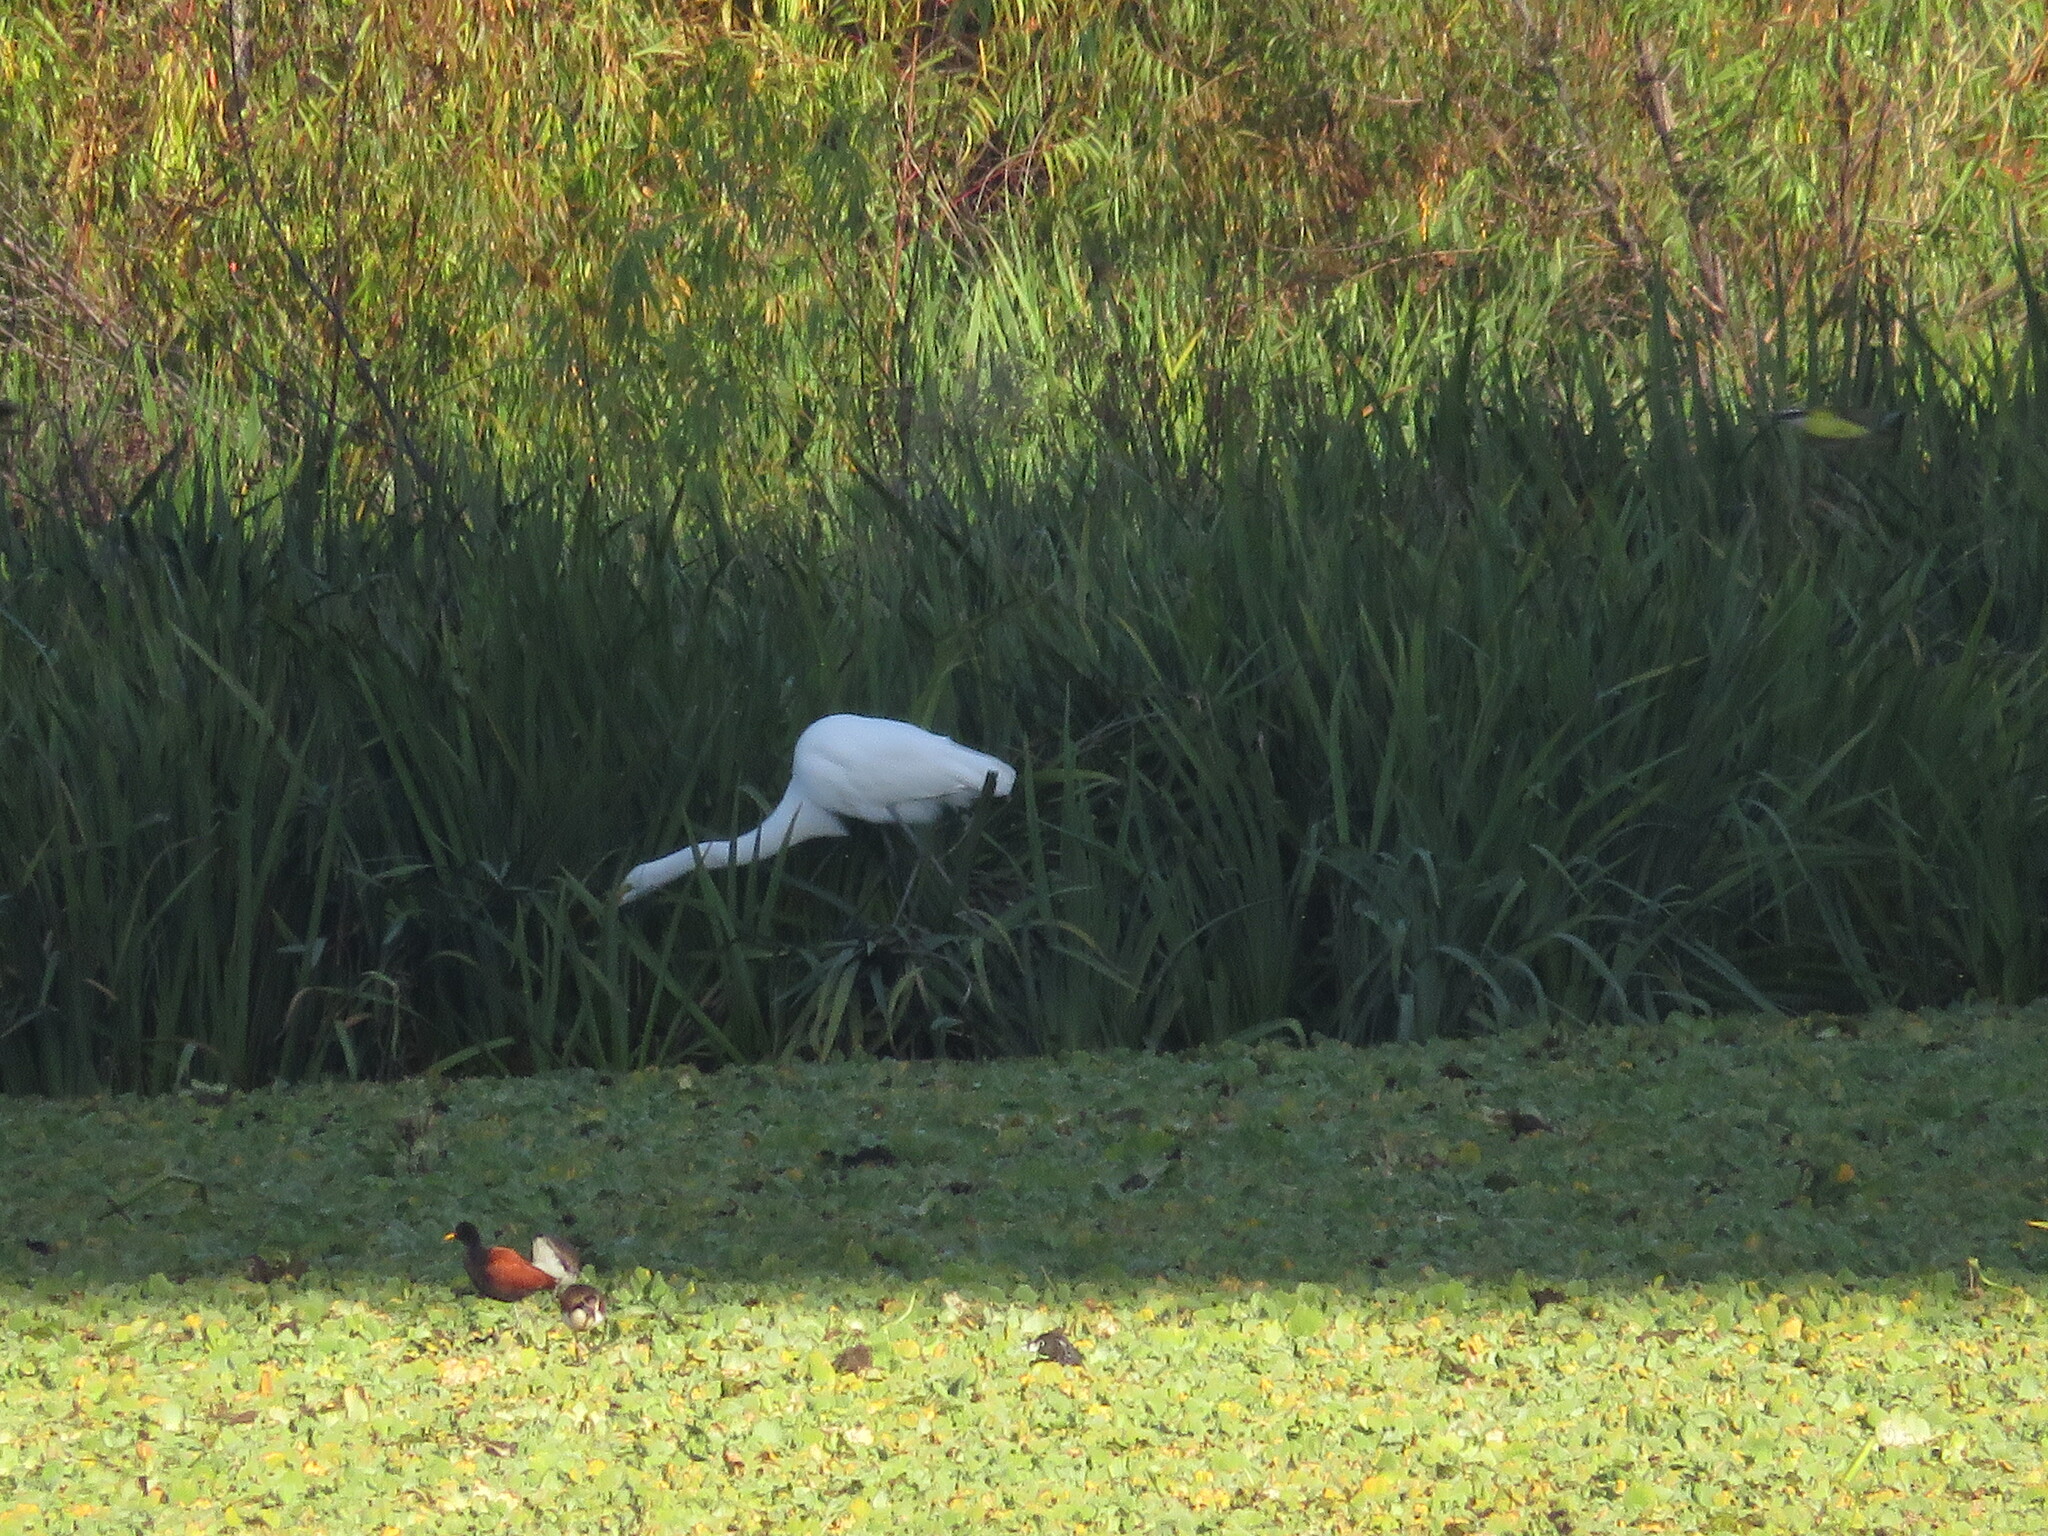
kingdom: Animalia
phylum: Chordata
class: Aves
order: Pelecaniformes
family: Ardeidae
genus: Ardea
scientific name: Ardea alba
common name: Great egret
